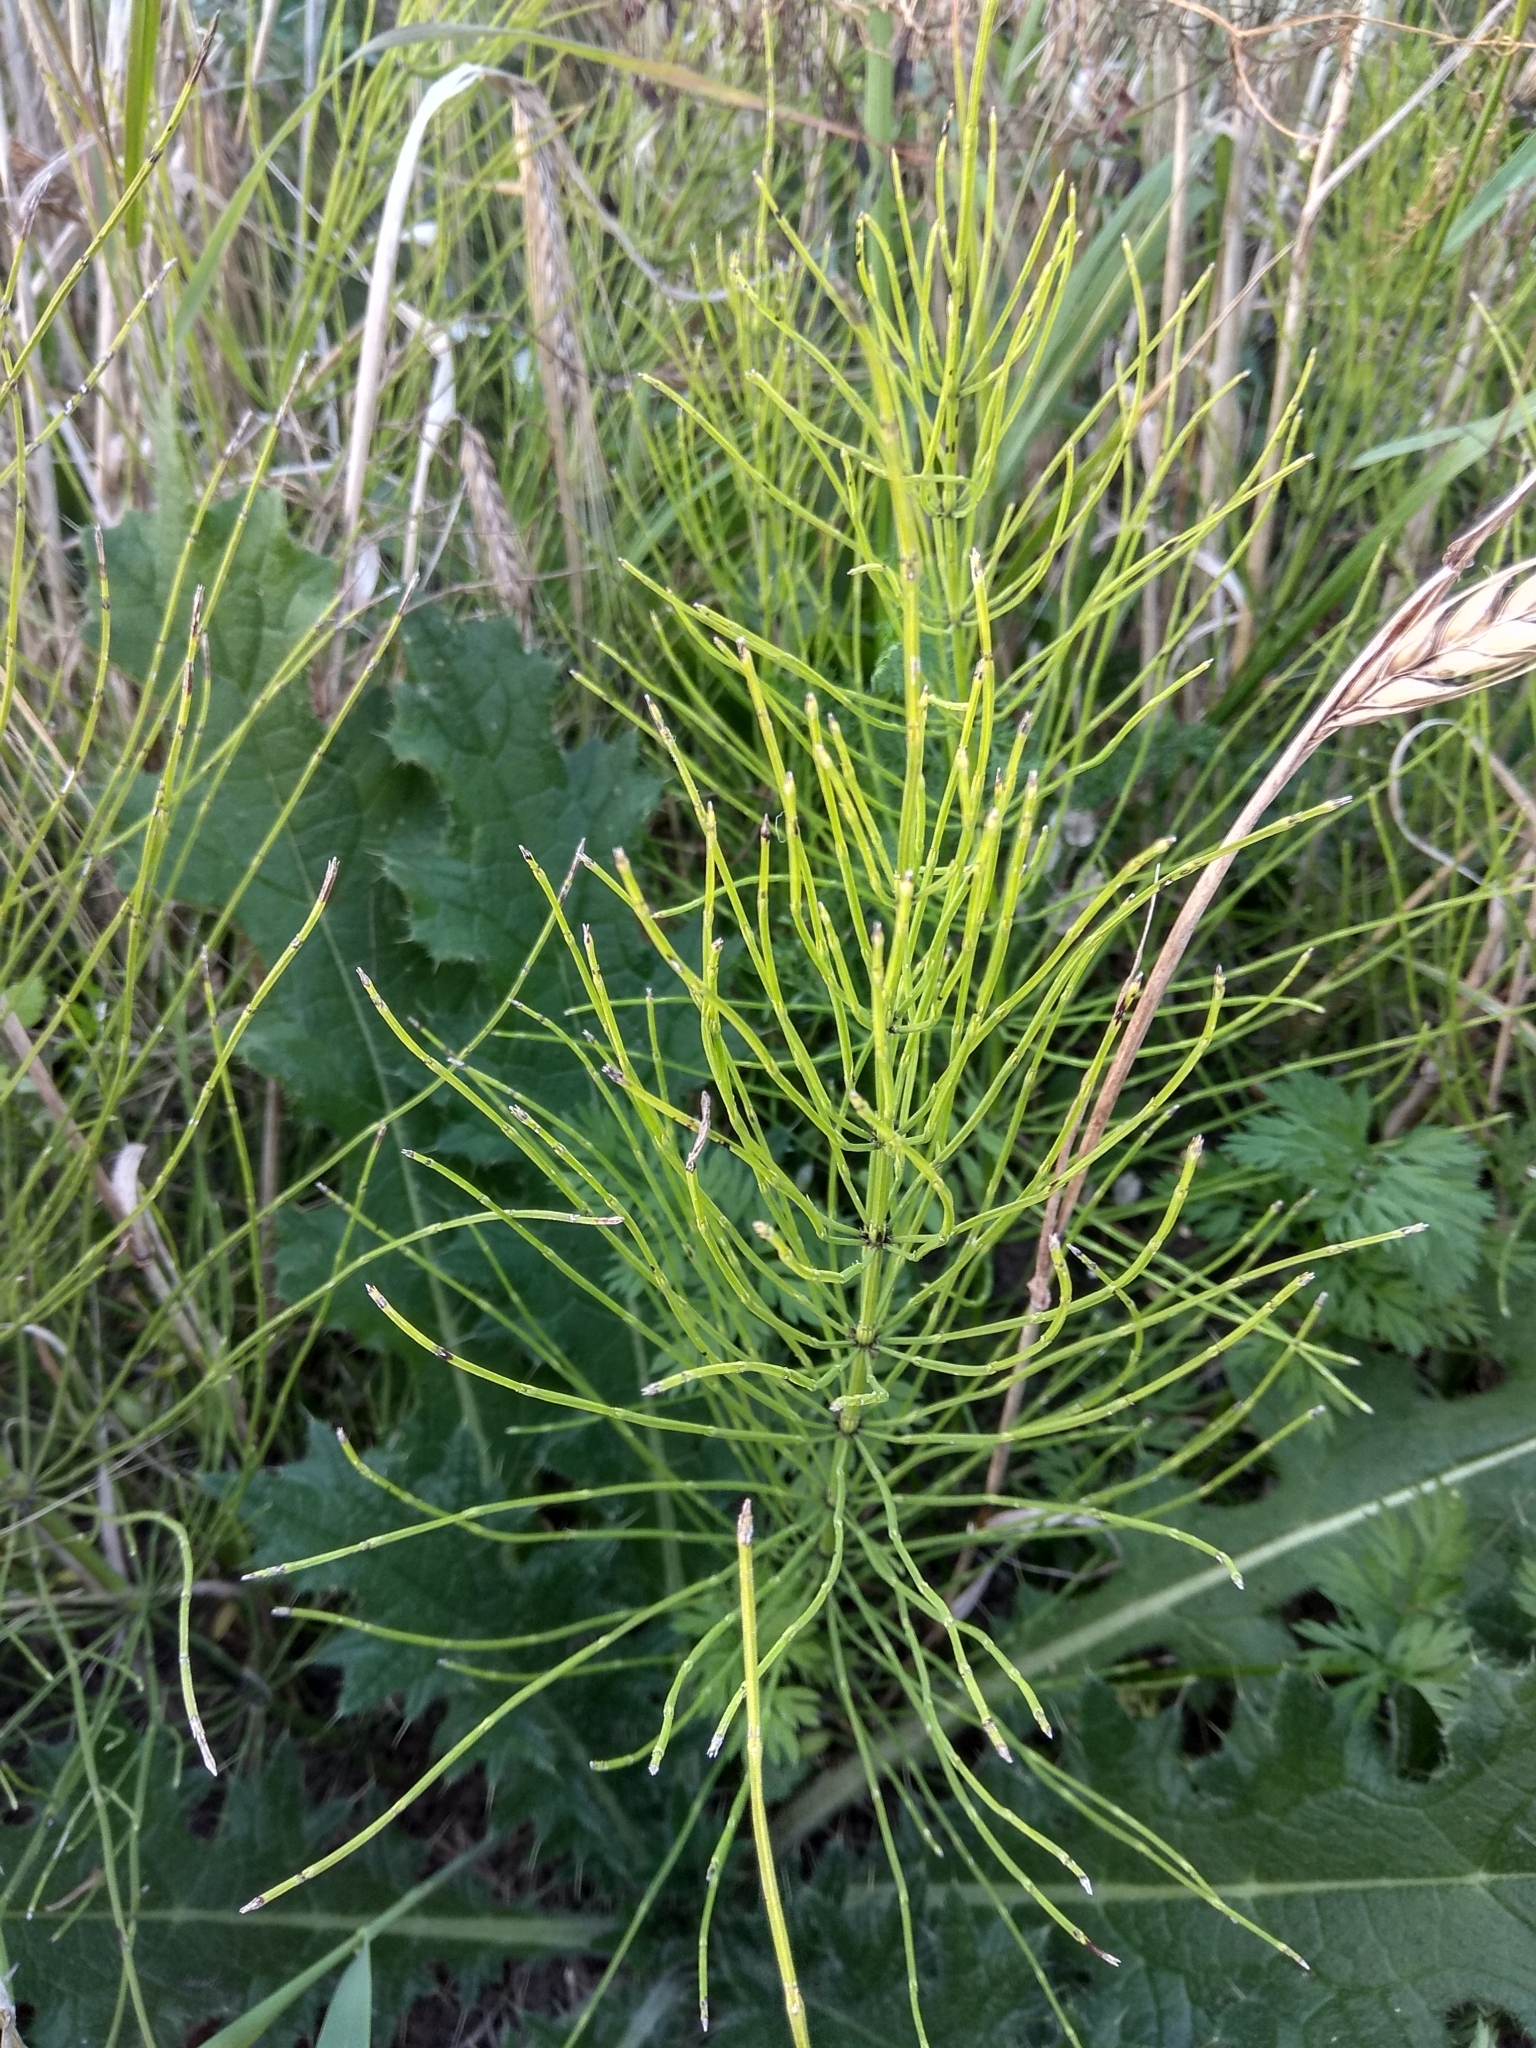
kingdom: Plantae
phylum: Tracheophyta
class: Polypodiopsida
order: Equisetales
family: Equisetaceae
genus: Equisetum
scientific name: Equisetum arvense
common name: Field horsetail
